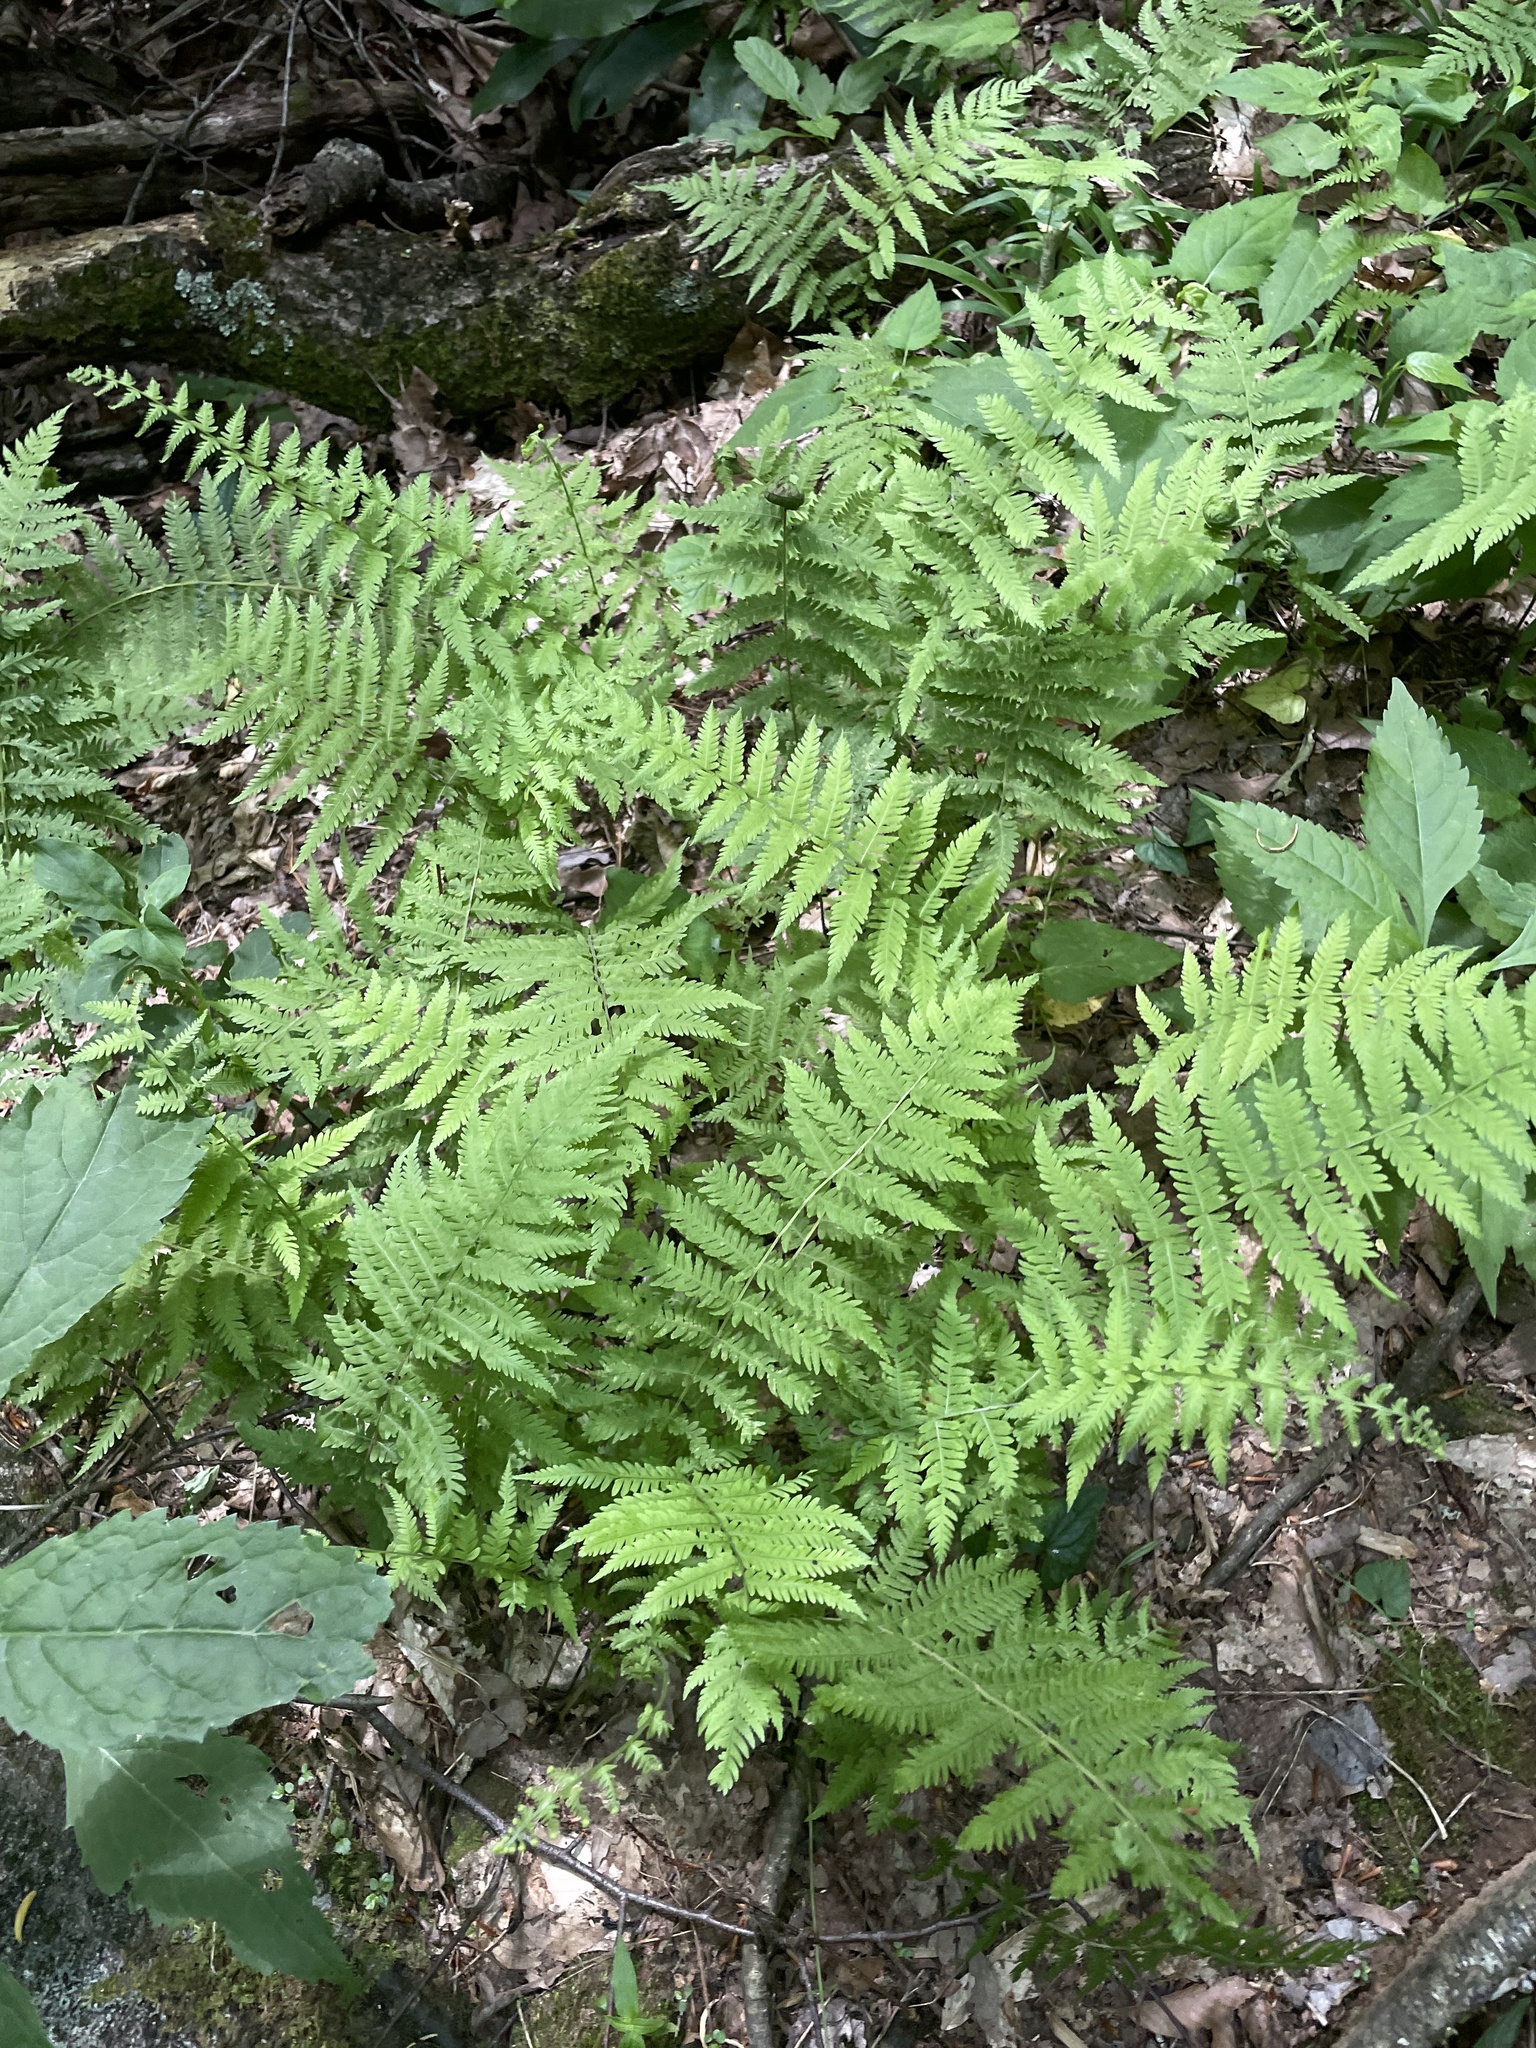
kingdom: Plantae
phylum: Tracheophyta
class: Polypodiopsida
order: Polypodiales
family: Thelypteridaceae
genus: Amauropelta
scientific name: Amauropelta noveboracensis
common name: New york fern
